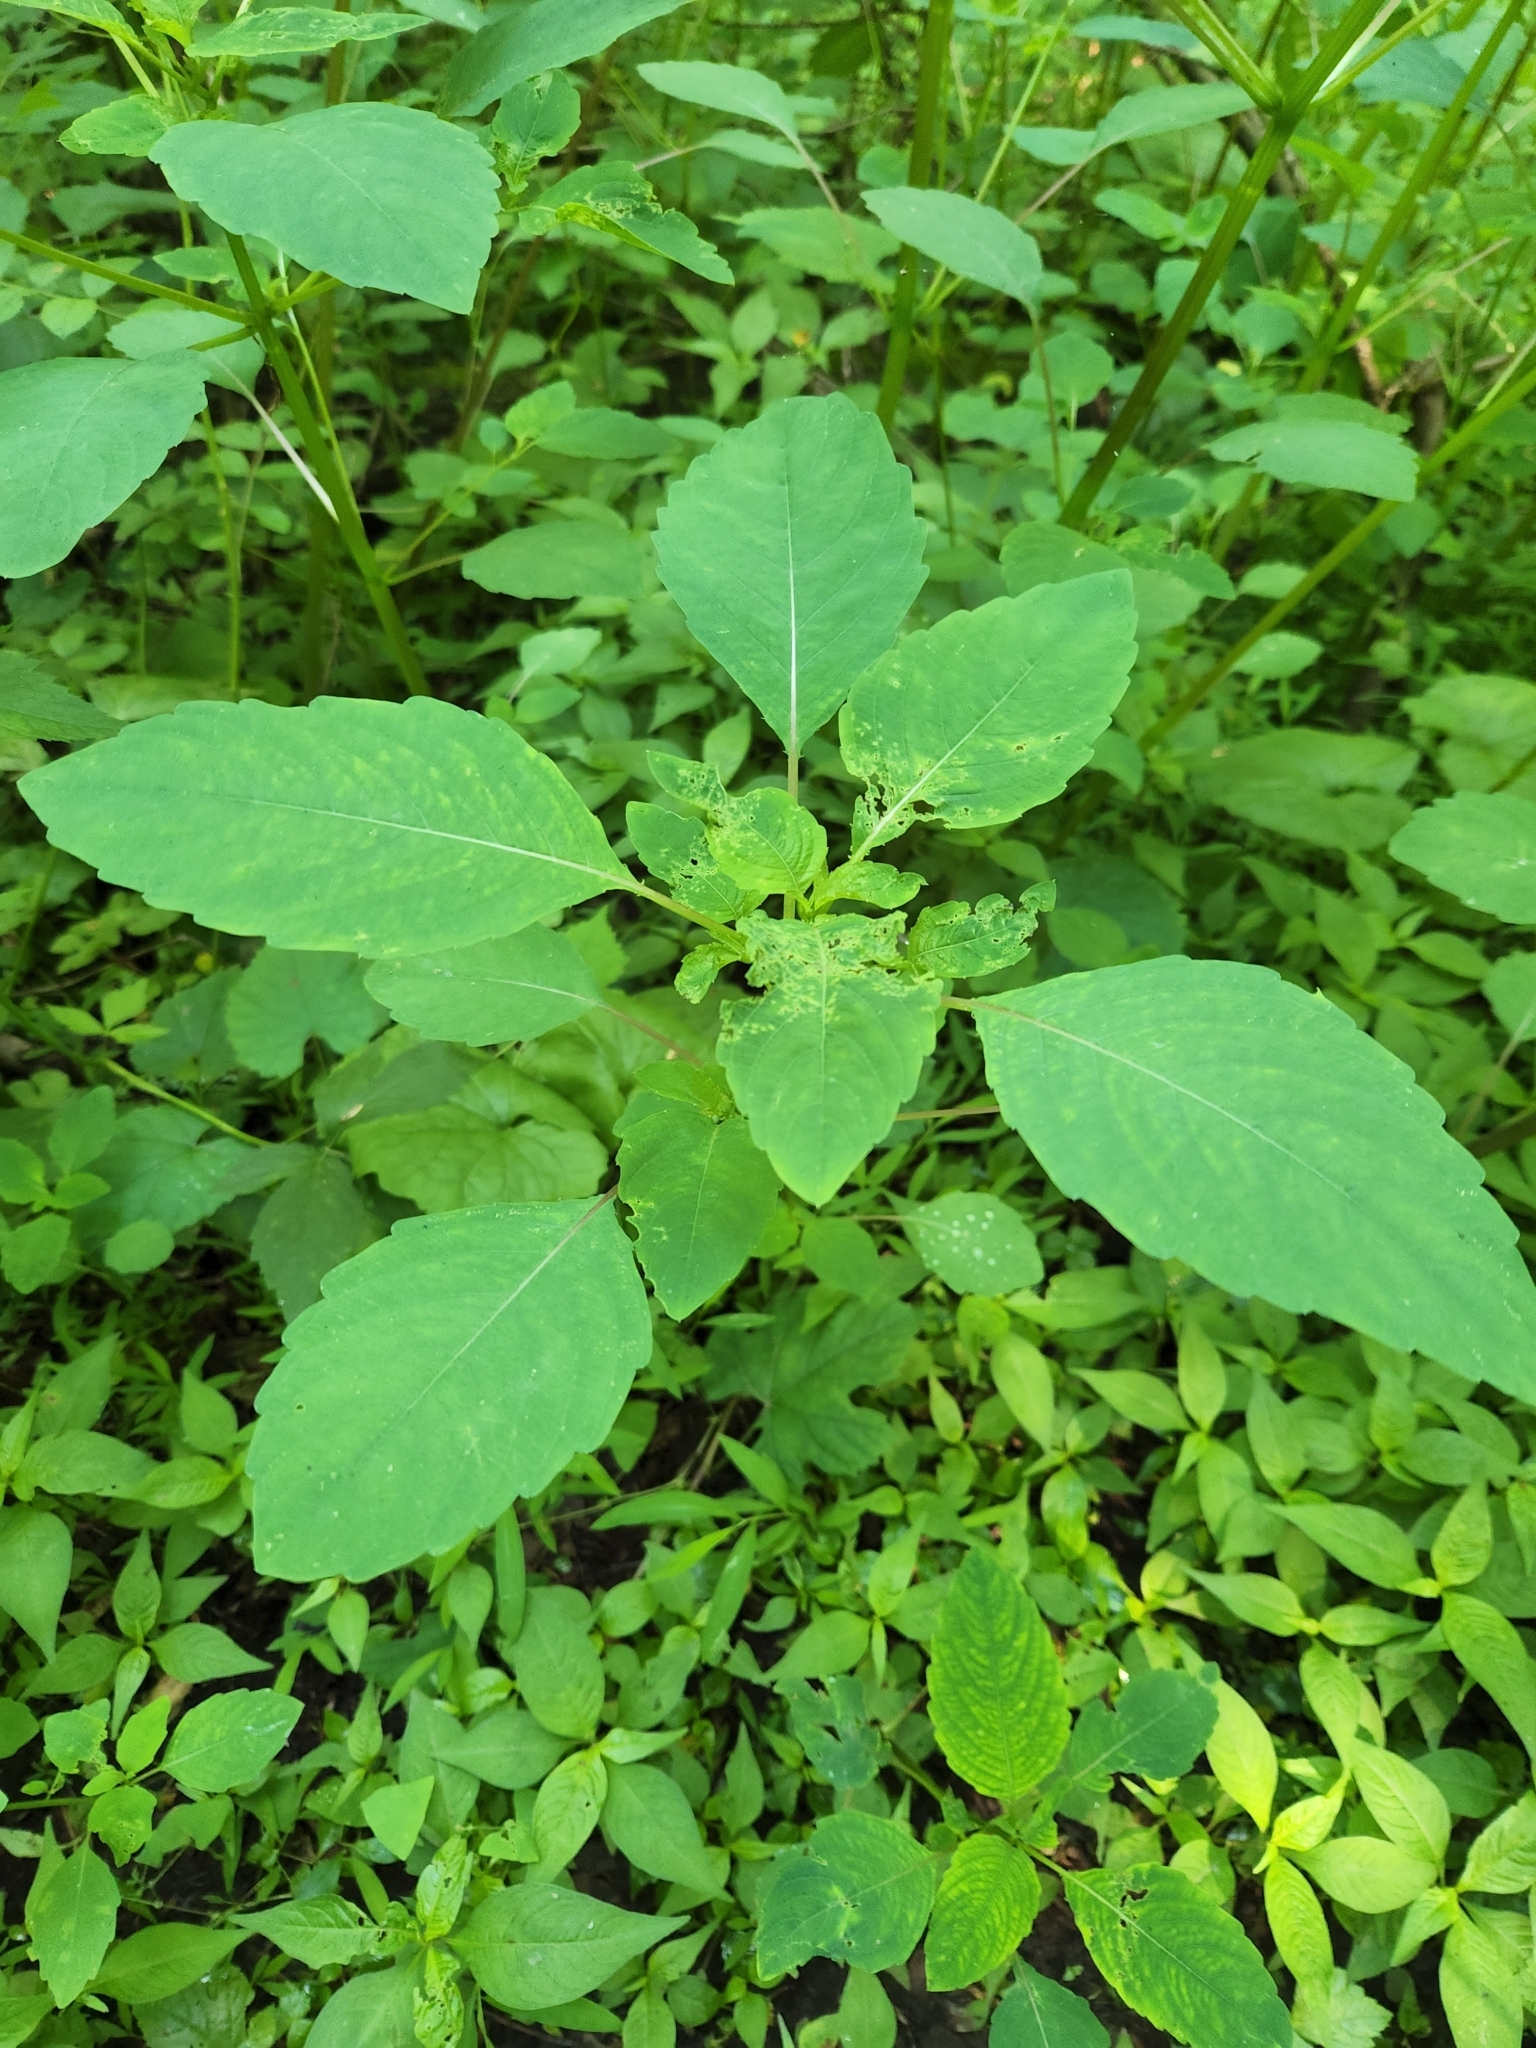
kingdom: Plantae
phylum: Tracheophyta
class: Magnoliopsida
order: Ericales
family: Balsaminaceae
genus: Impatiens
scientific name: Impatiens capensis
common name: Orange balsam
